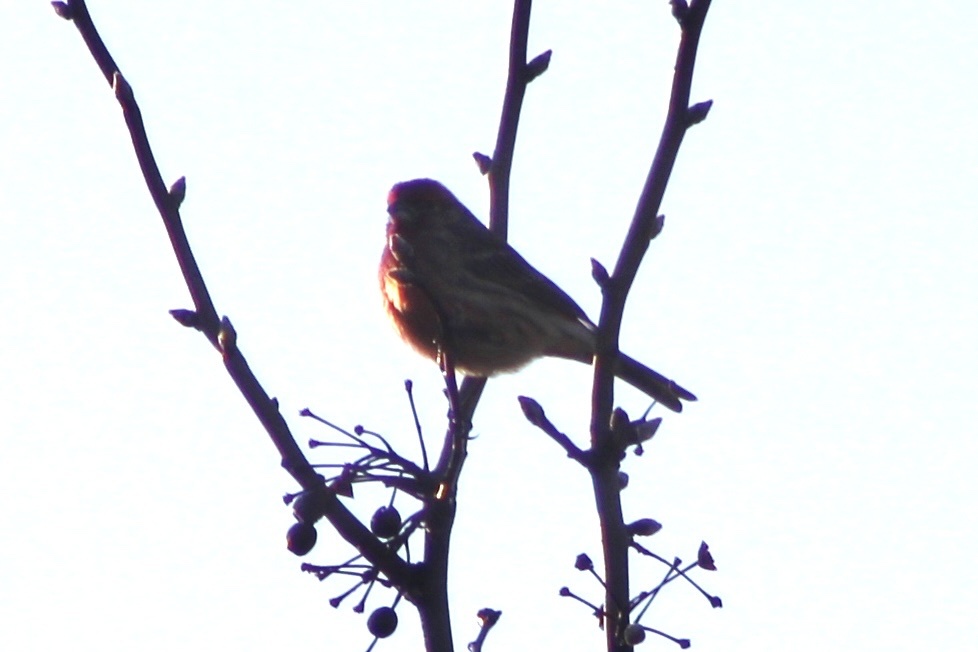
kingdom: Animalia
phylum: Chordata
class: Aves
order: Passeriformes
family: Fringillidae
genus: Haemorhous
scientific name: Haemorhous mexicanus
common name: House finch
